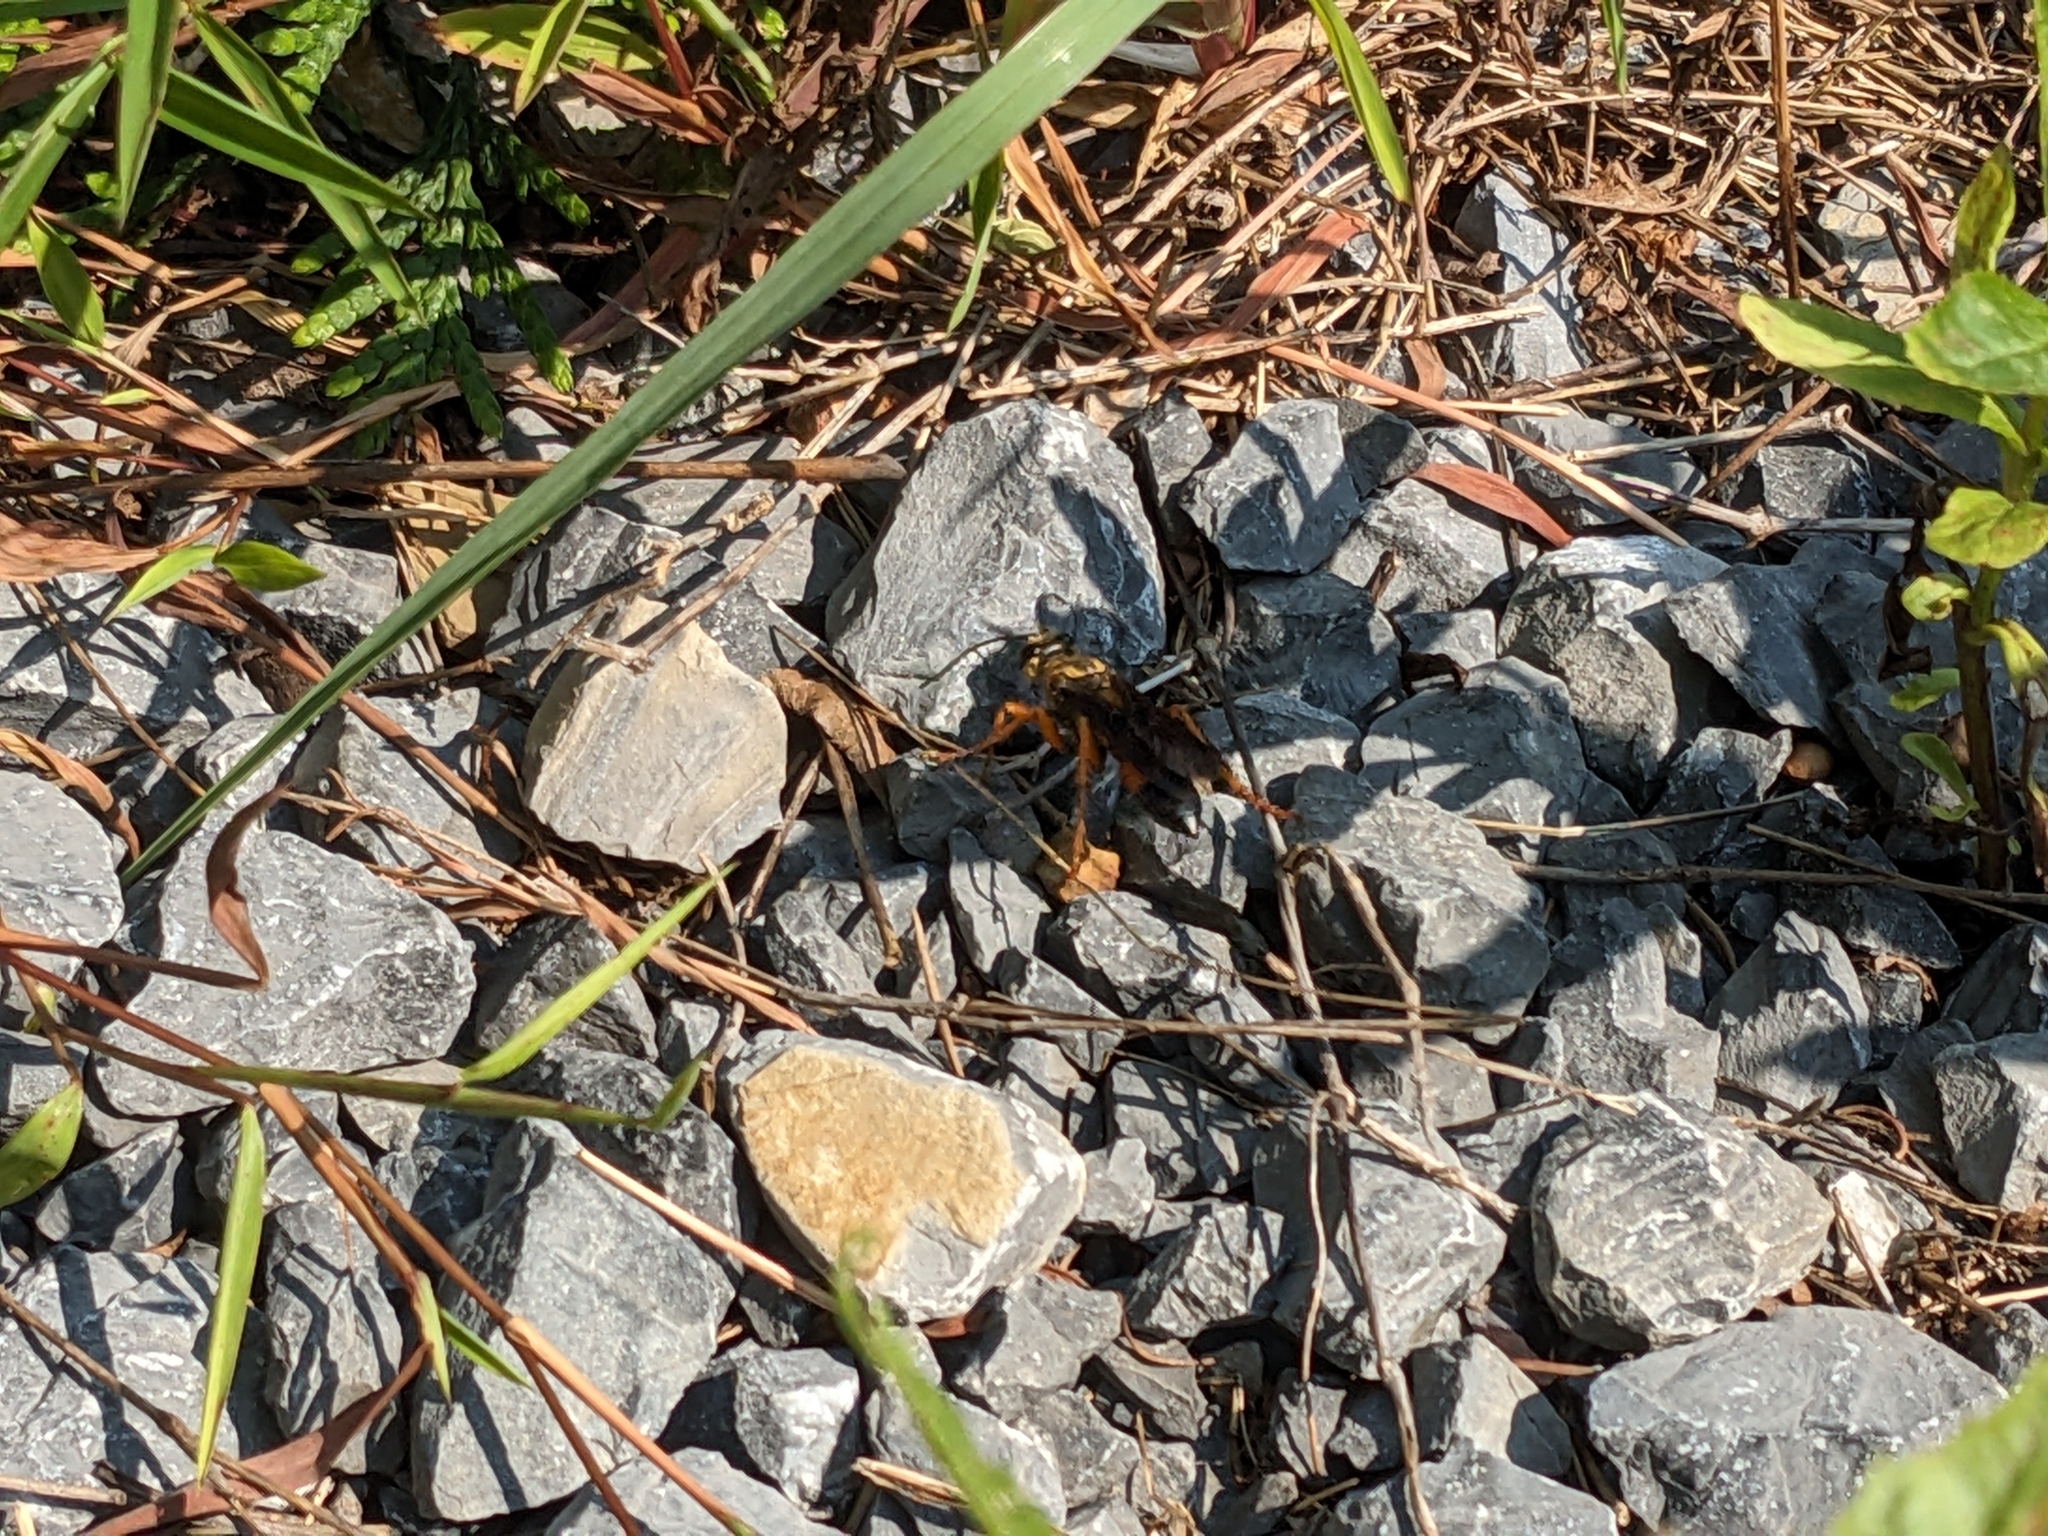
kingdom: Animalia
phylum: Arthropoda
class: Insecta
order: Hymenoptera
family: Sphecidae
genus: Sphex
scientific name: Sphex ichneumoneus
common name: Great golden digger wasp
